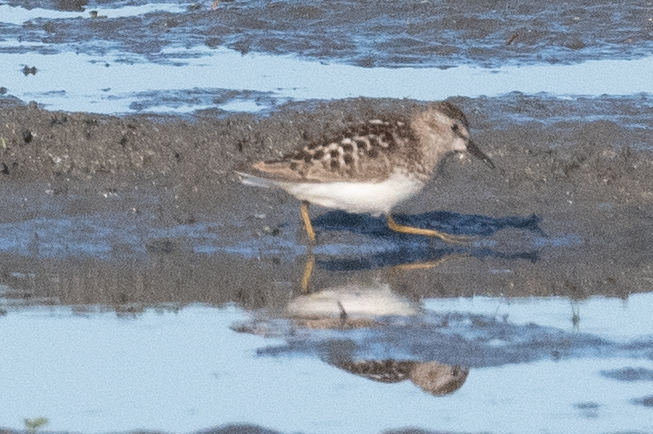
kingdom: Animalia
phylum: Chordata
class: Aves
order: Charadriiformes
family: Scolopacidae
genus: Calidris
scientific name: Calidris minutilla
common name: Least sandpiper
